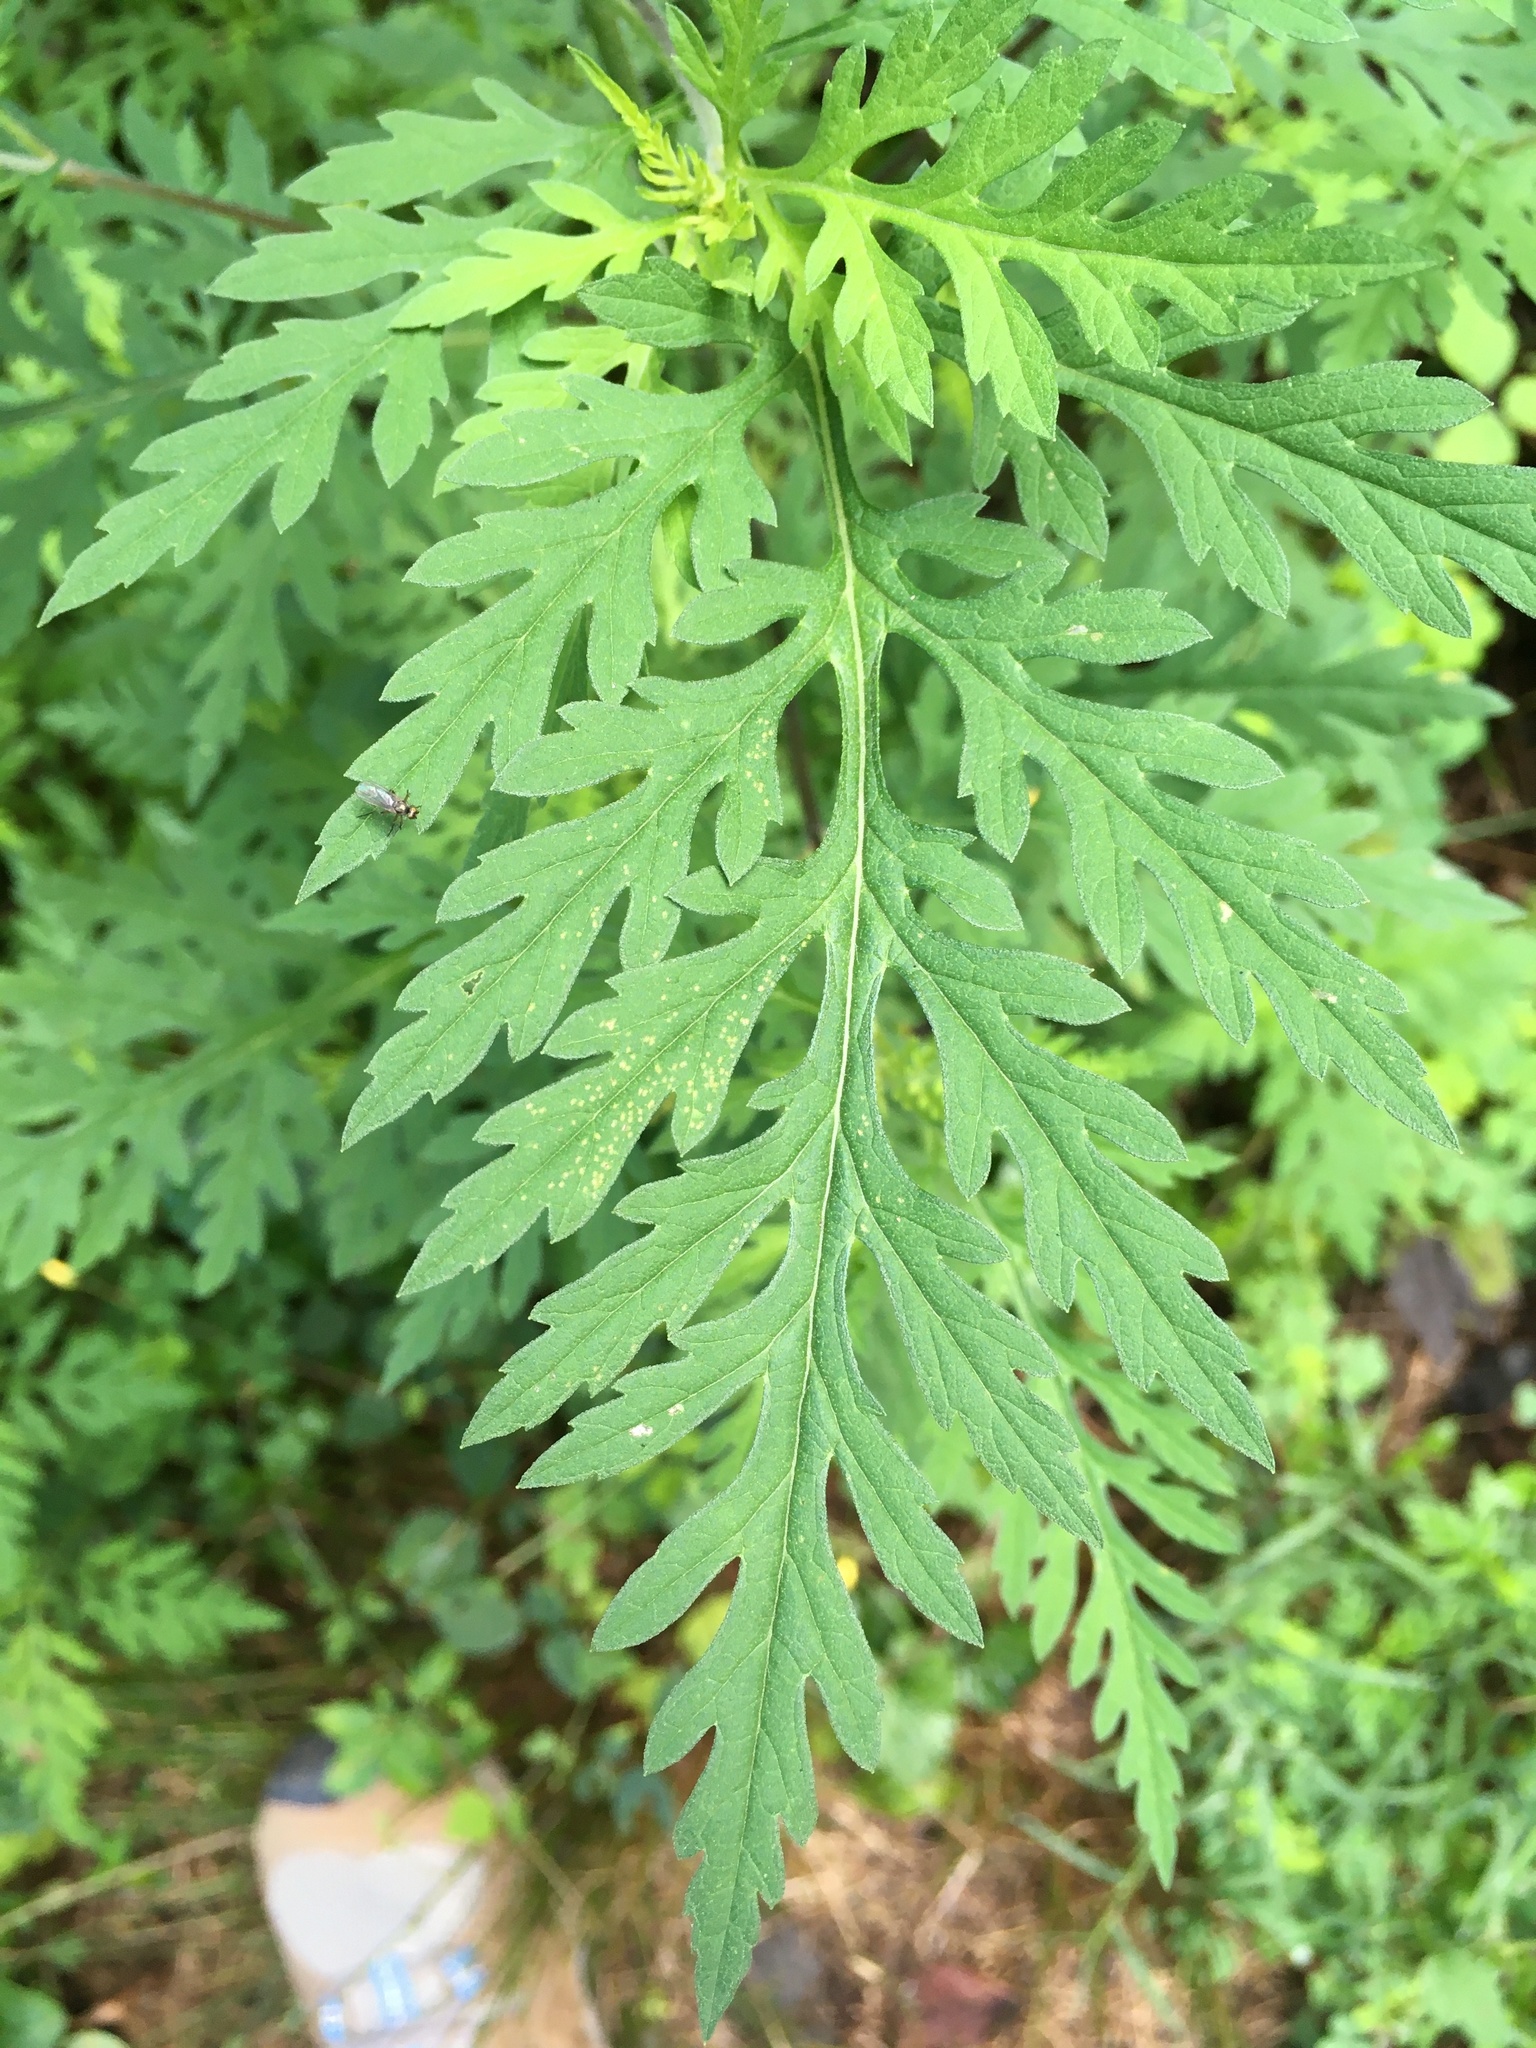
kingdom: Plantae
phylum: Tracheophyta
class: Magnoliopsida
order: Asterales
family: Asteraceae
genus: Ambrosia
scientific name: Ambrosia artemisiifolia
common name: Annual ragweed
